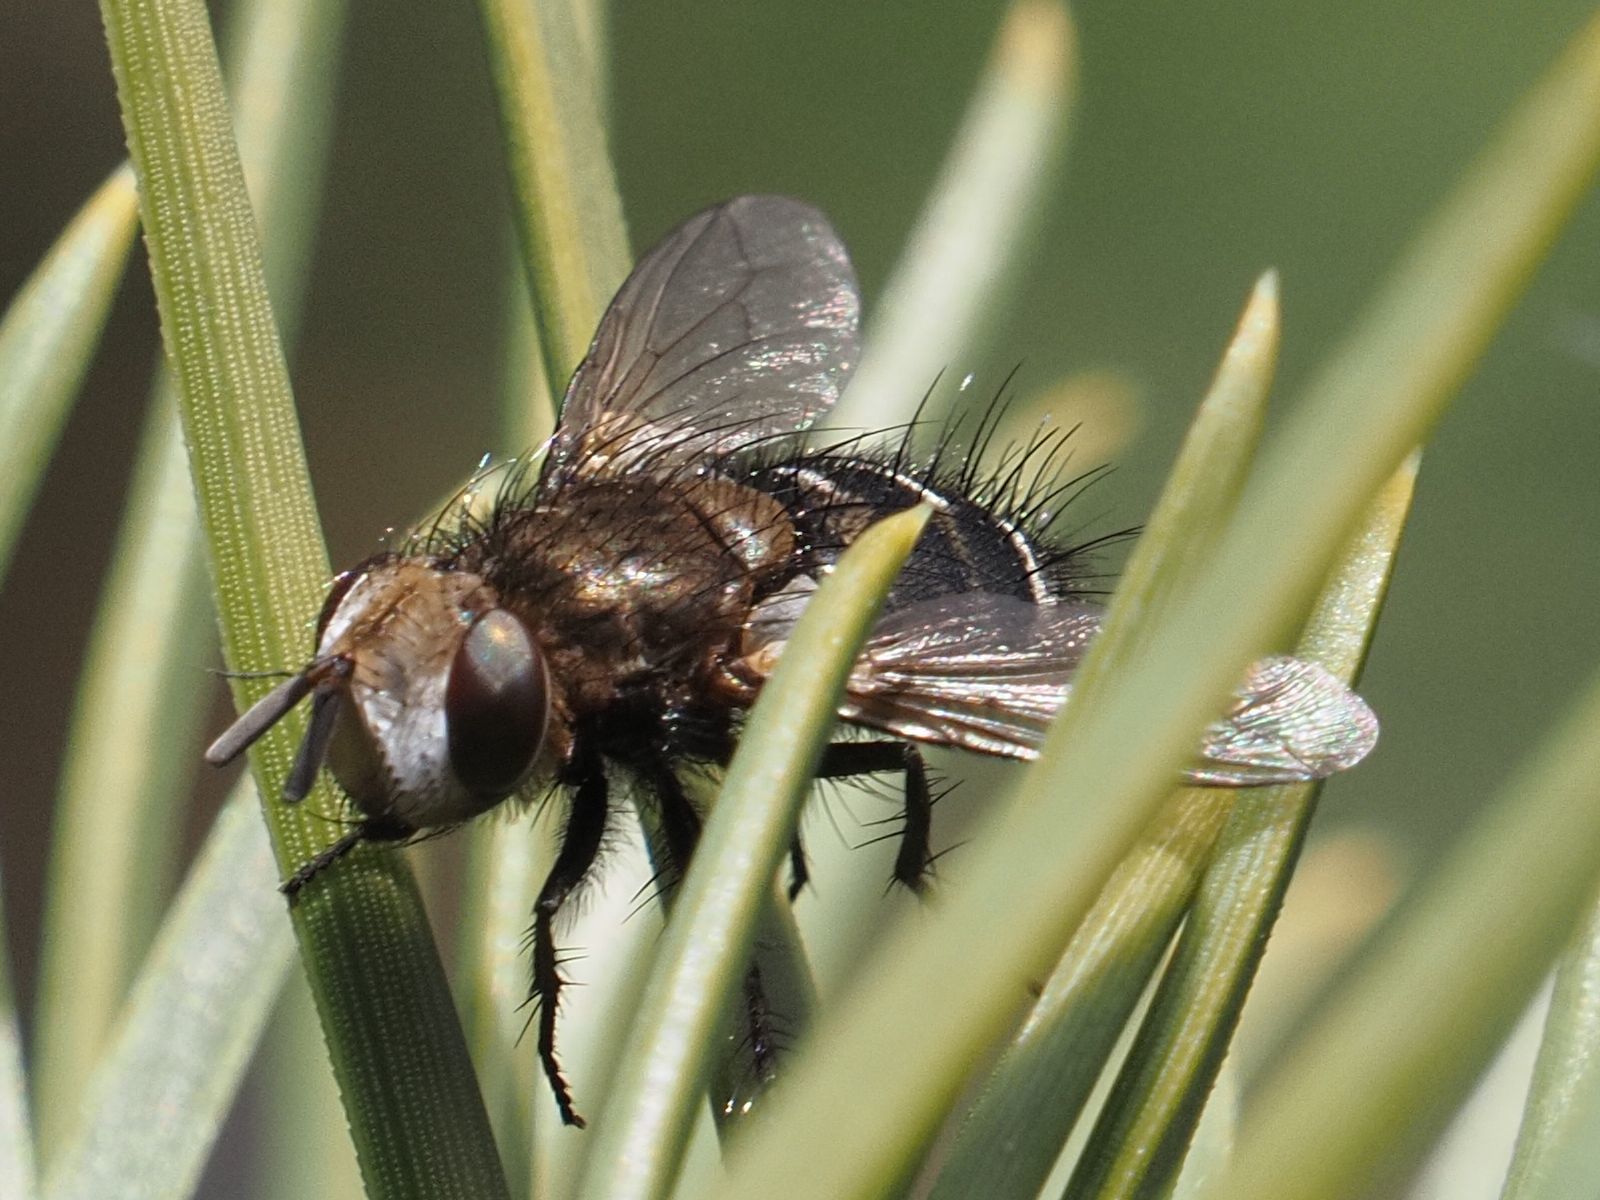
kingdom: Animalia
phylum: Arthropoda
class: Insecta
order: Diptera
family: Tachinidae
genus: Gonia
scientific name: Gonia picea
